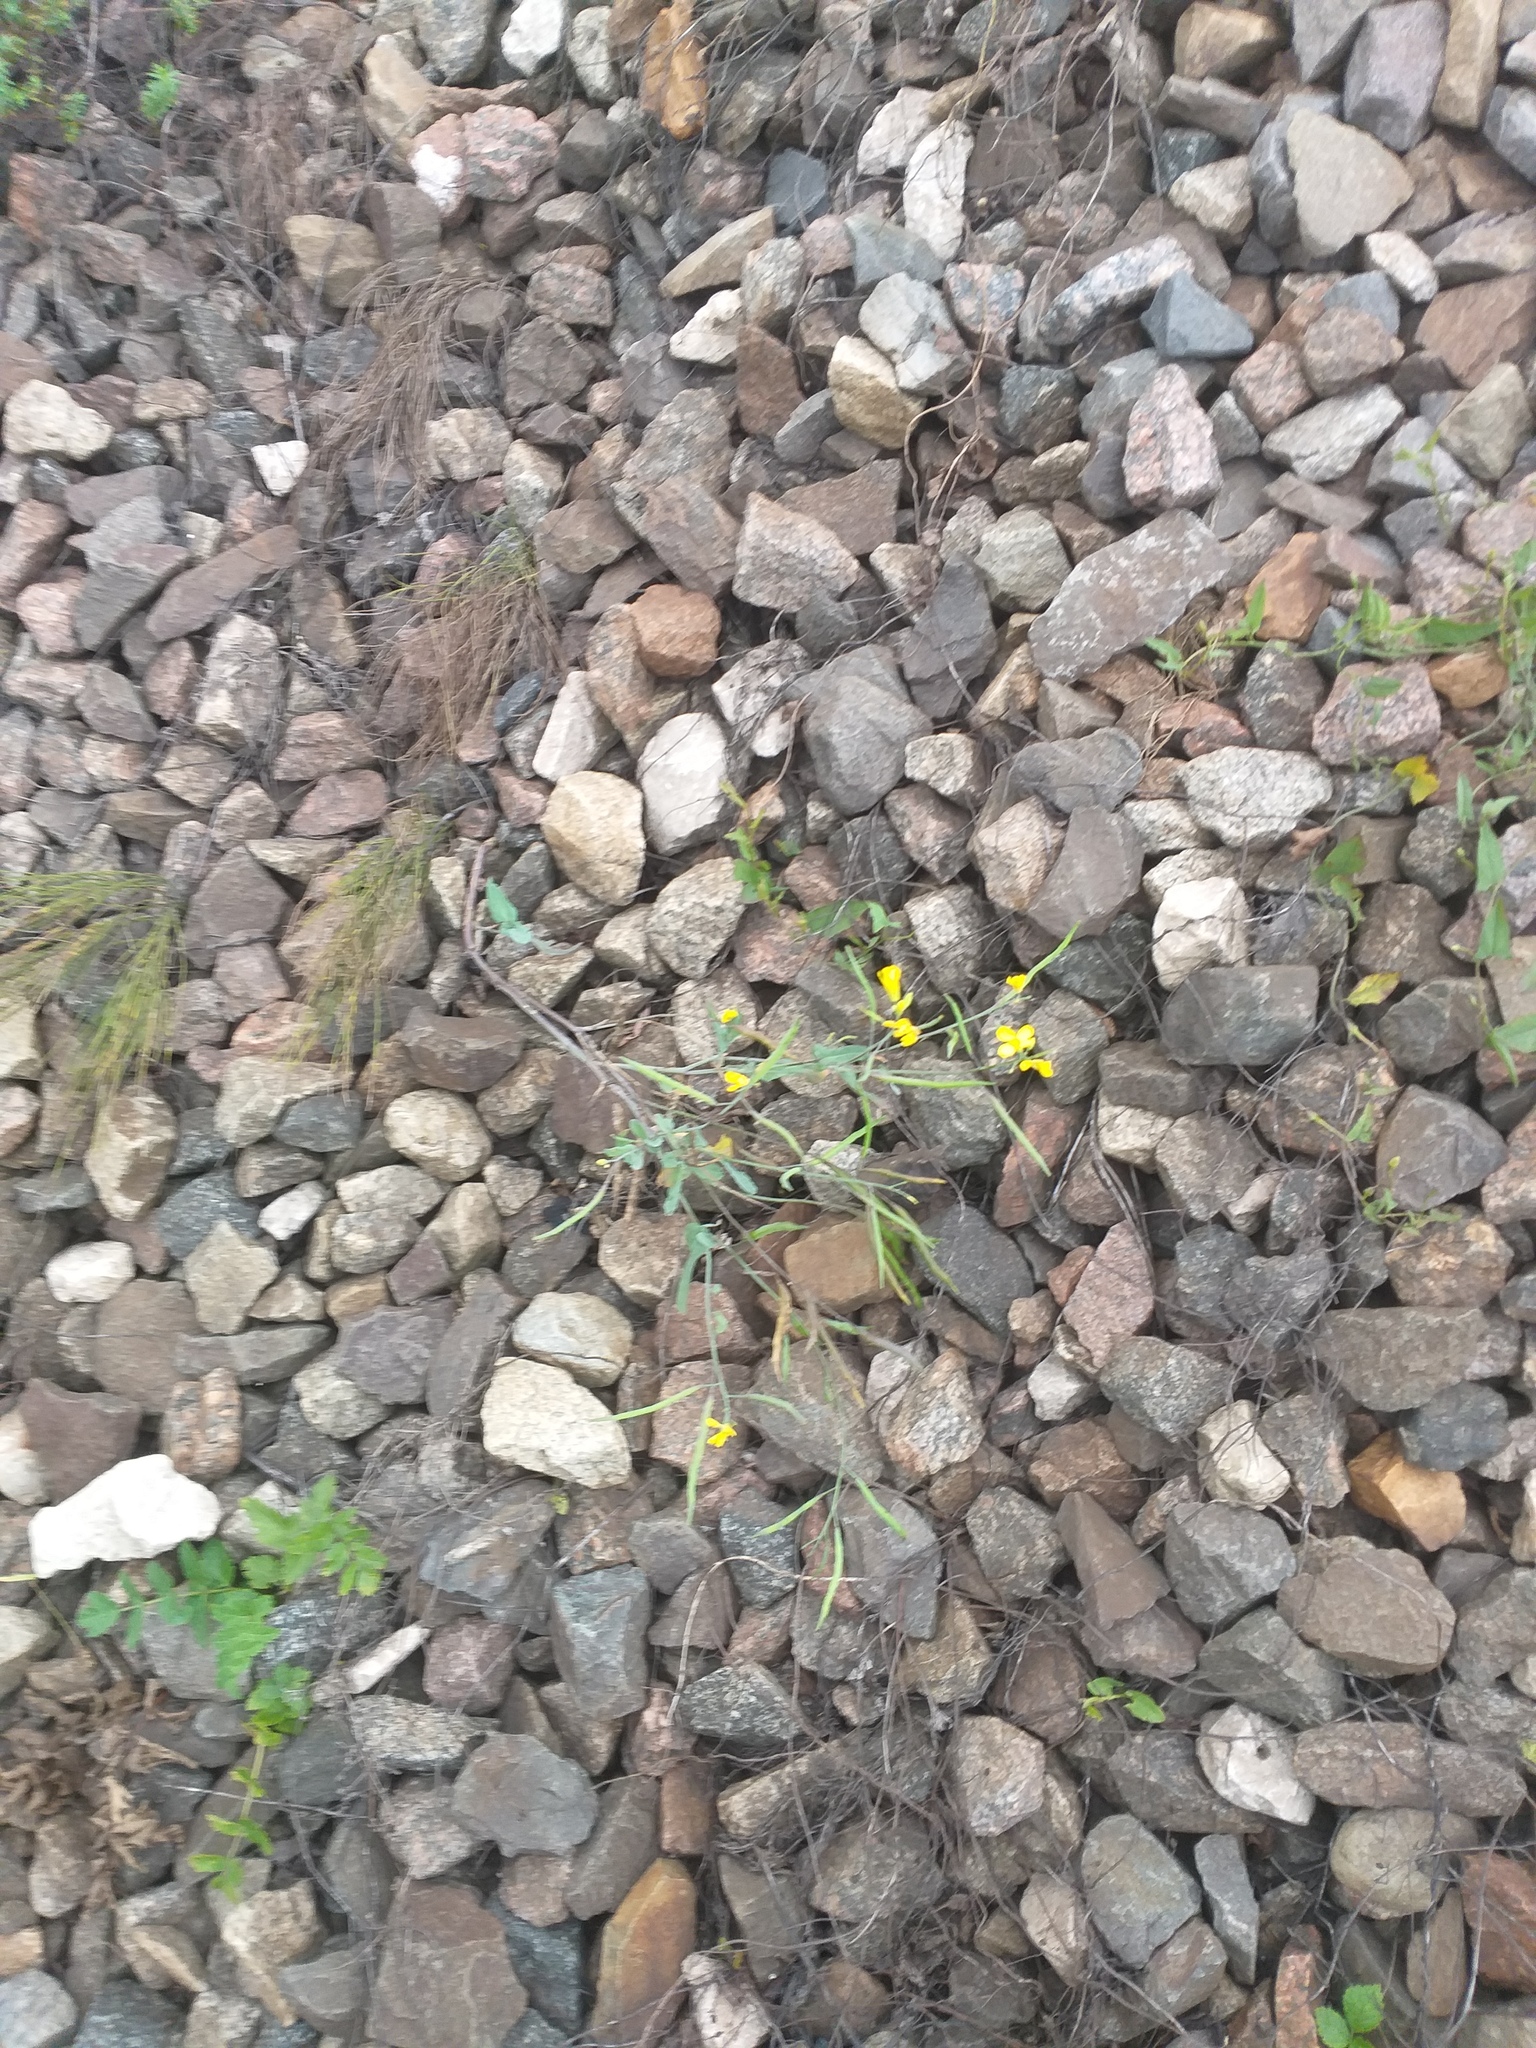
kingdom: Plantae
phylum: Tracheophyta
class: Magnoliopsida
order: Brassicales
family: Brassicaceae
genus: Brassica
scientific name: Brassica napus
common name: Rape
